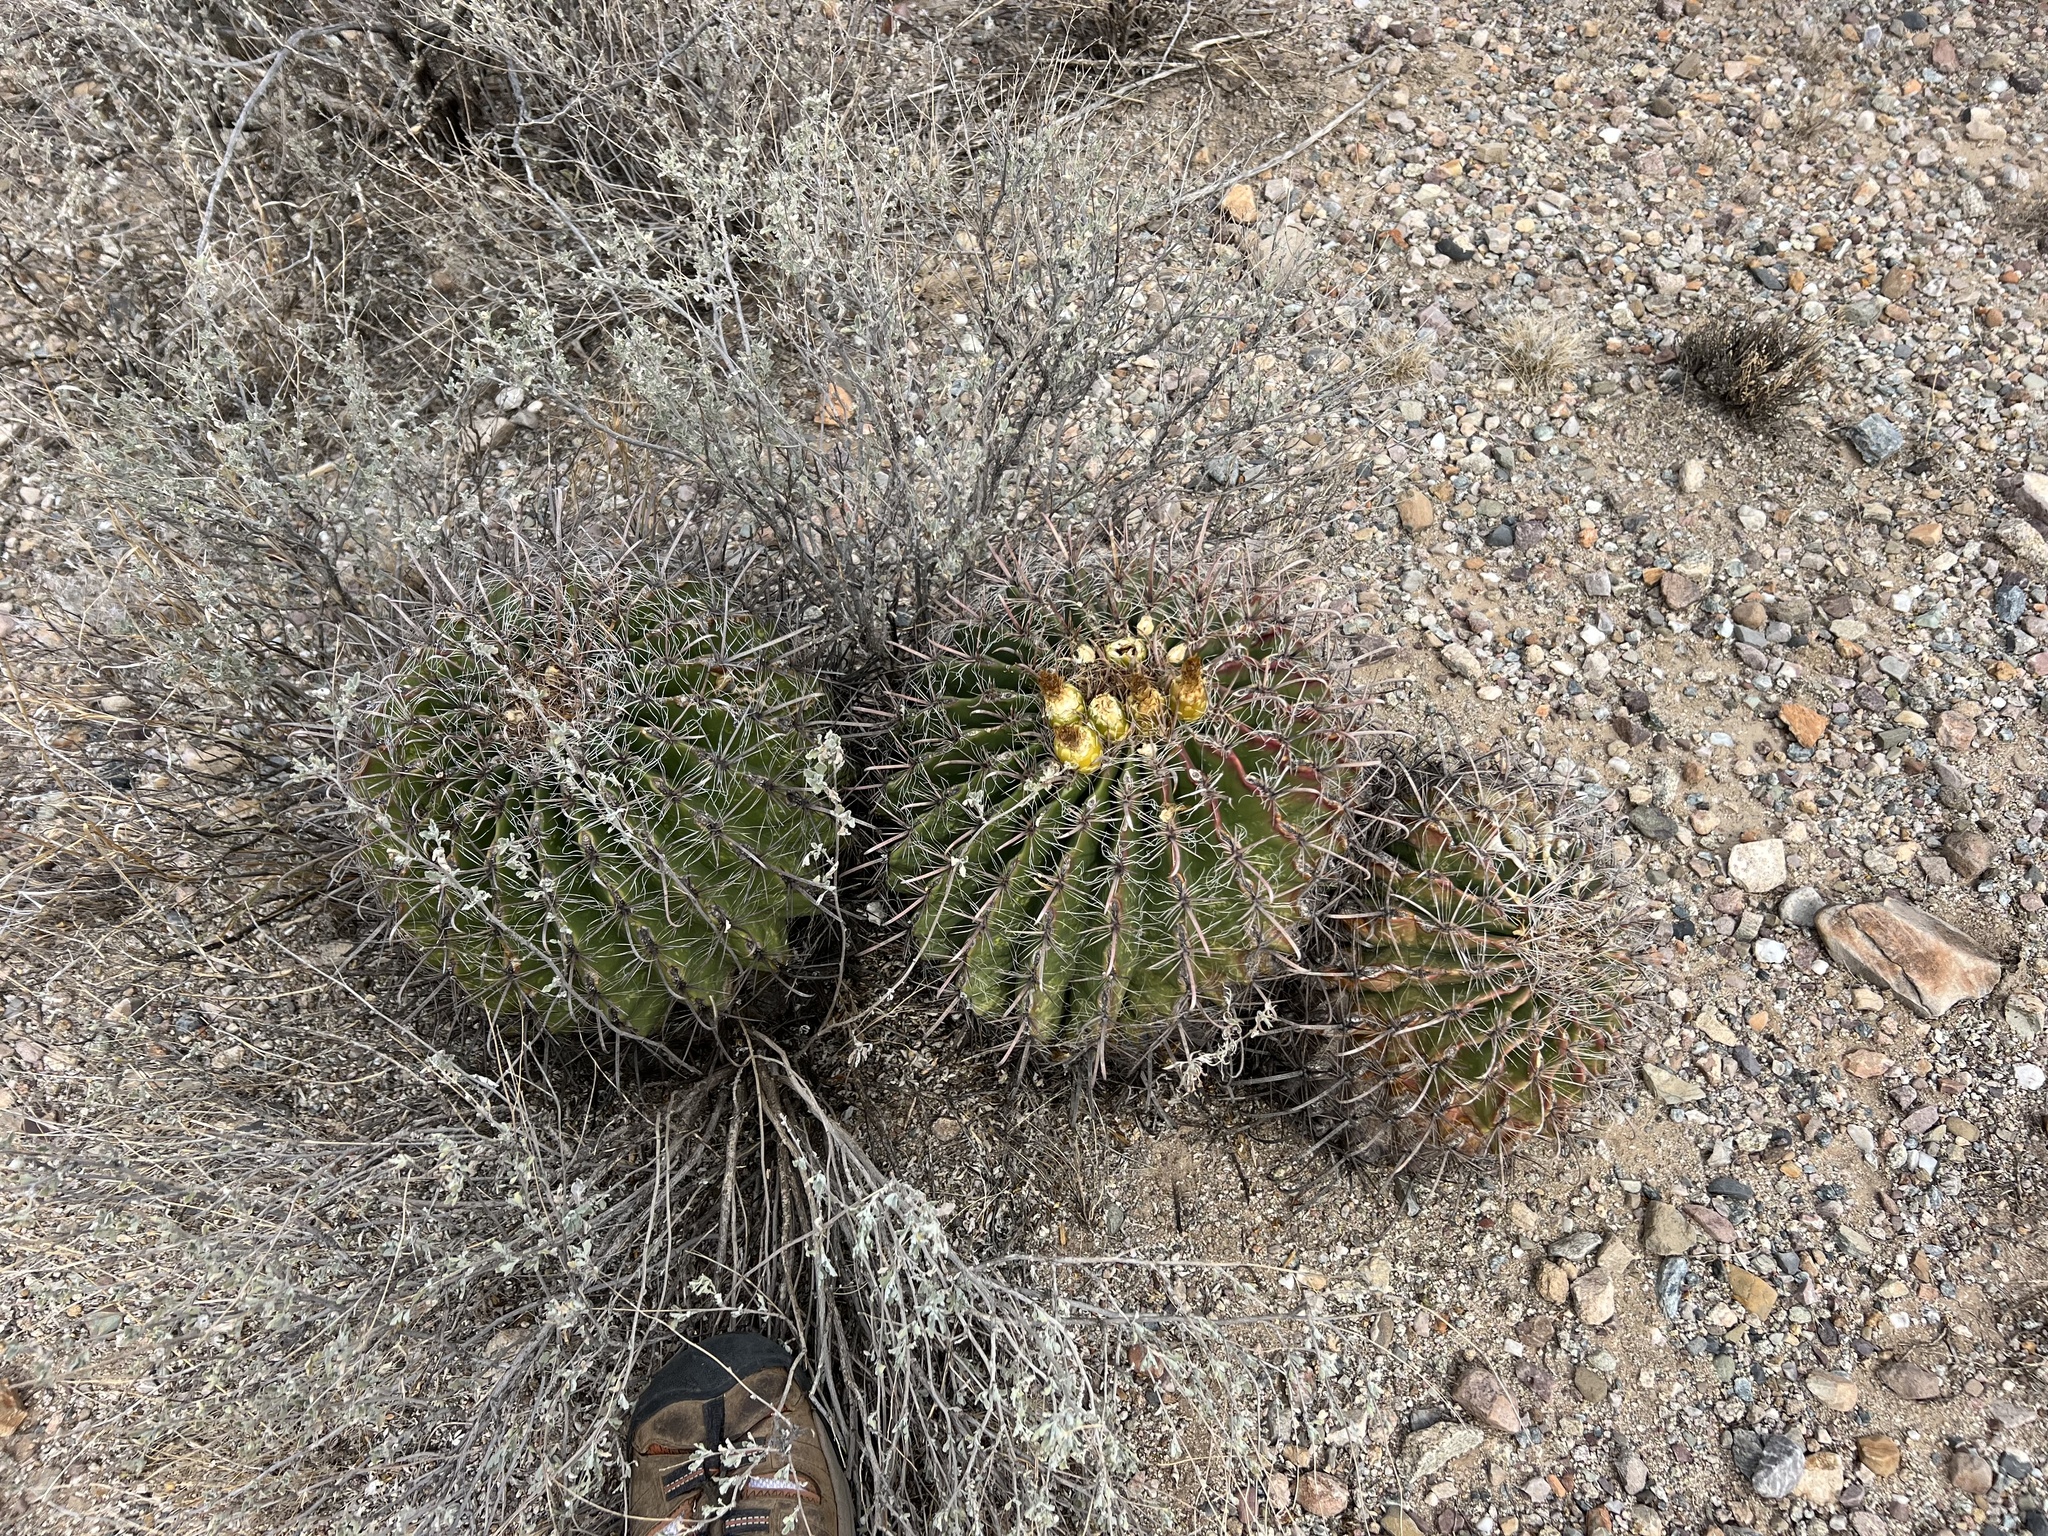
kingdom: Plantae
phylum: Tracheophyta
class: Magnoliopsida
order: Caryophyllales
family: Cactaceae
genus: Ferocactus
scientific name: Ferocactus wislizeni
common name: Candy barrel cactus
